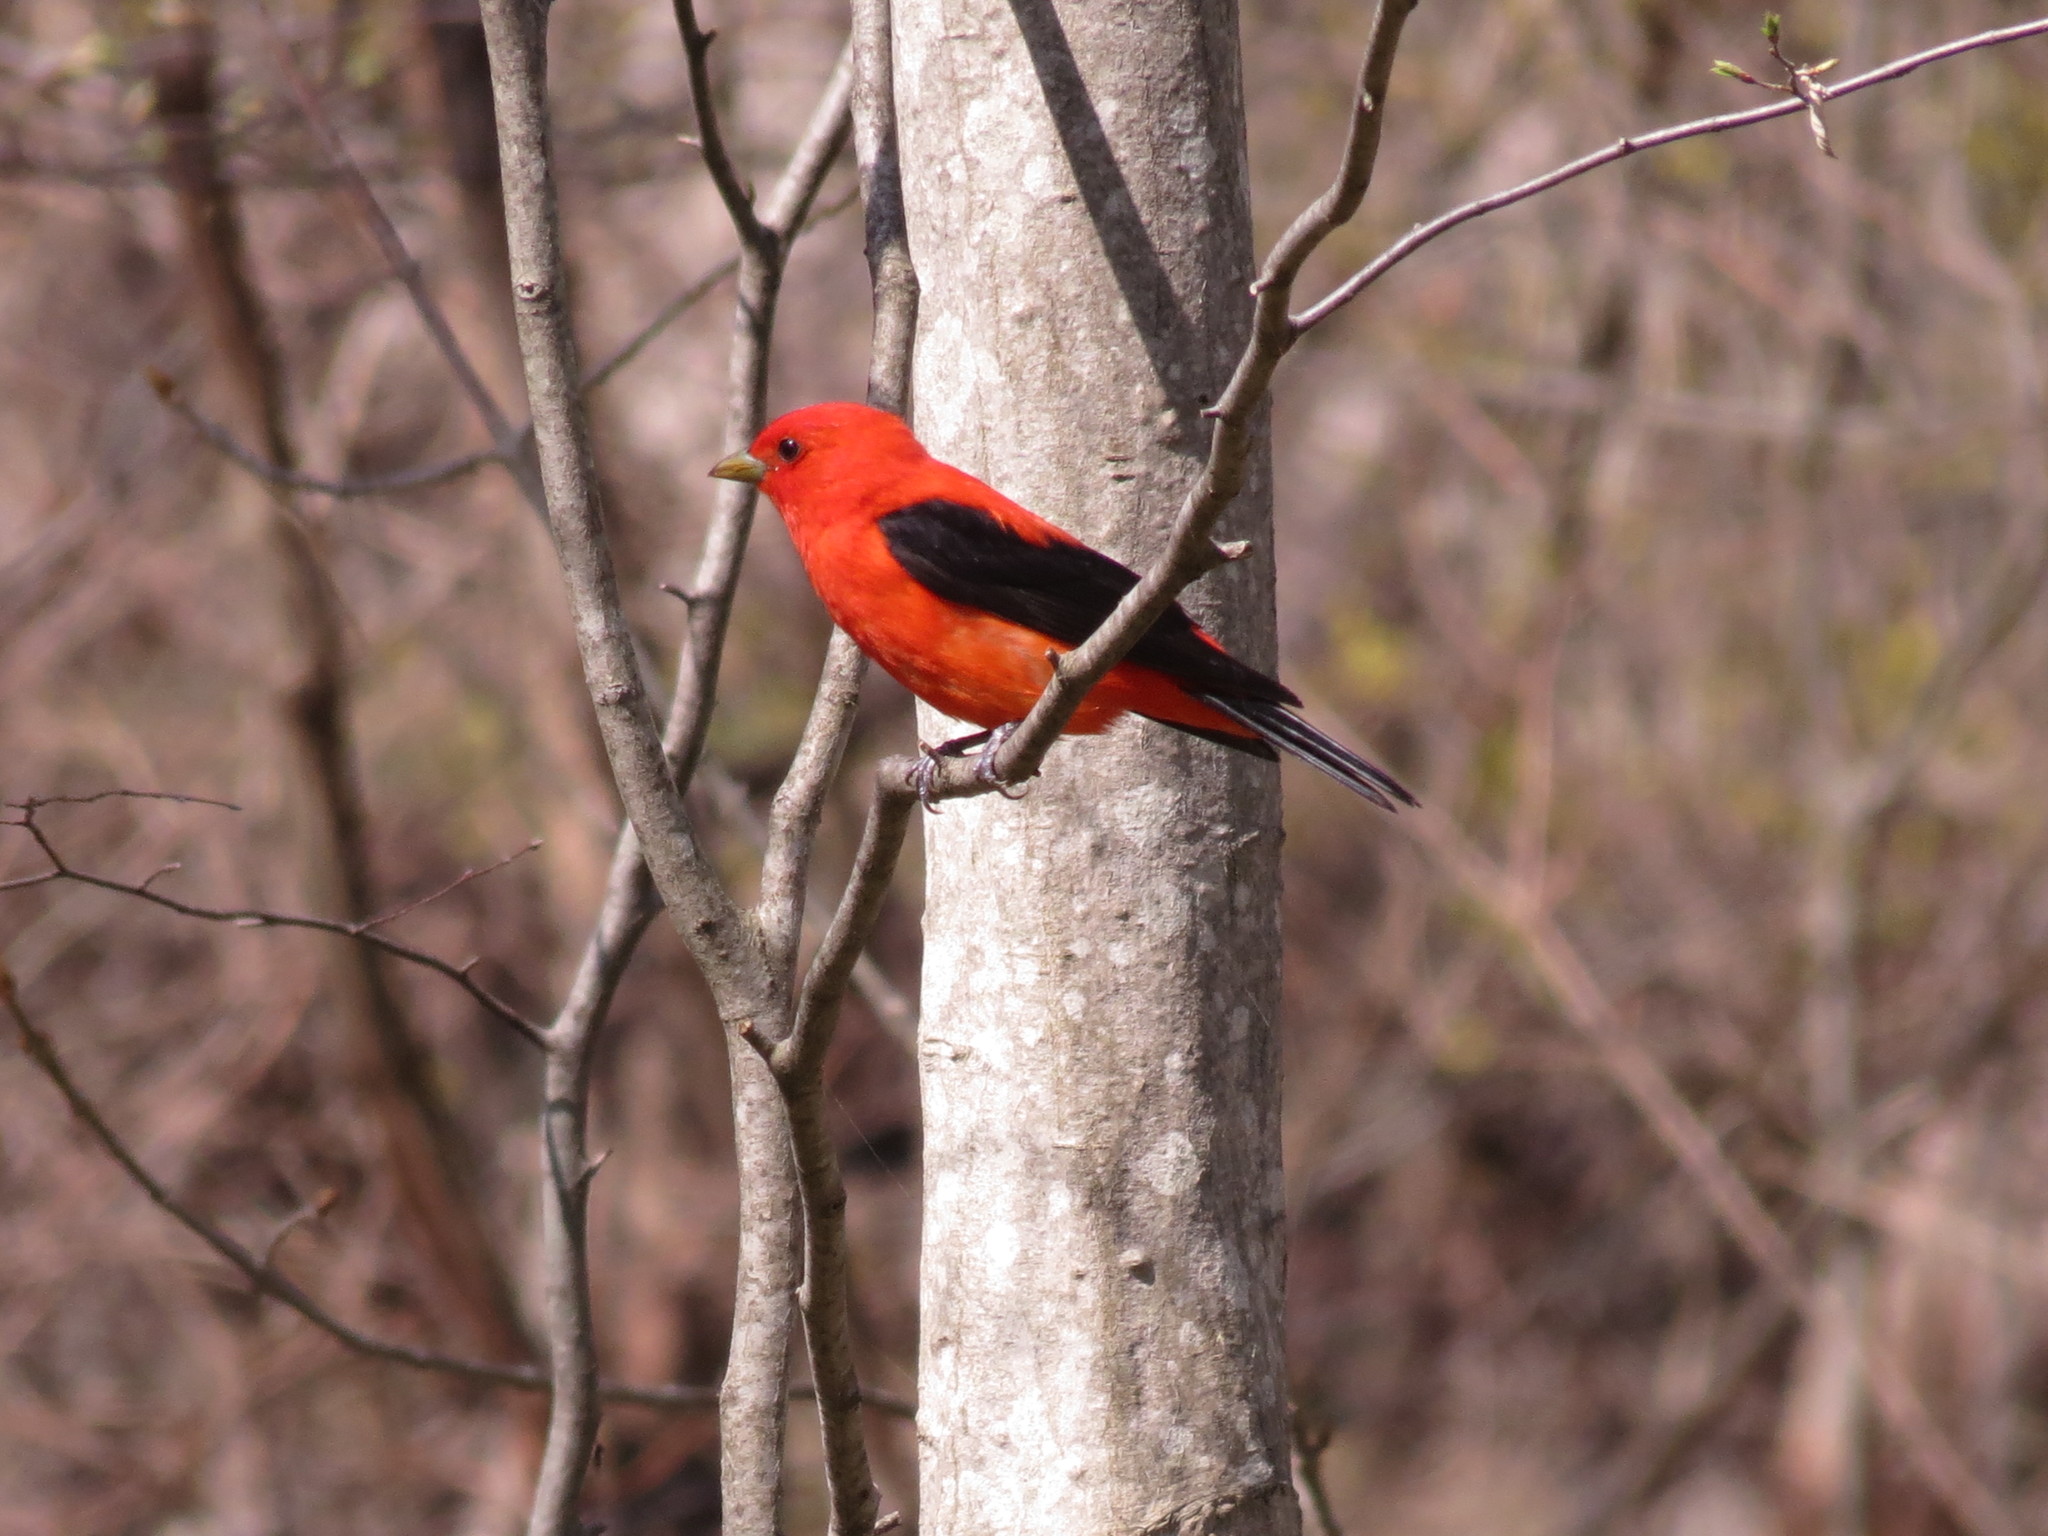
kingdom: Animalia
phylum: Chordata
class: Aves
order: Passeriformes
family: Cardinalidae
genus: Piranga
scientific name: Piranga olivacea
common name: Scarlet tanager
